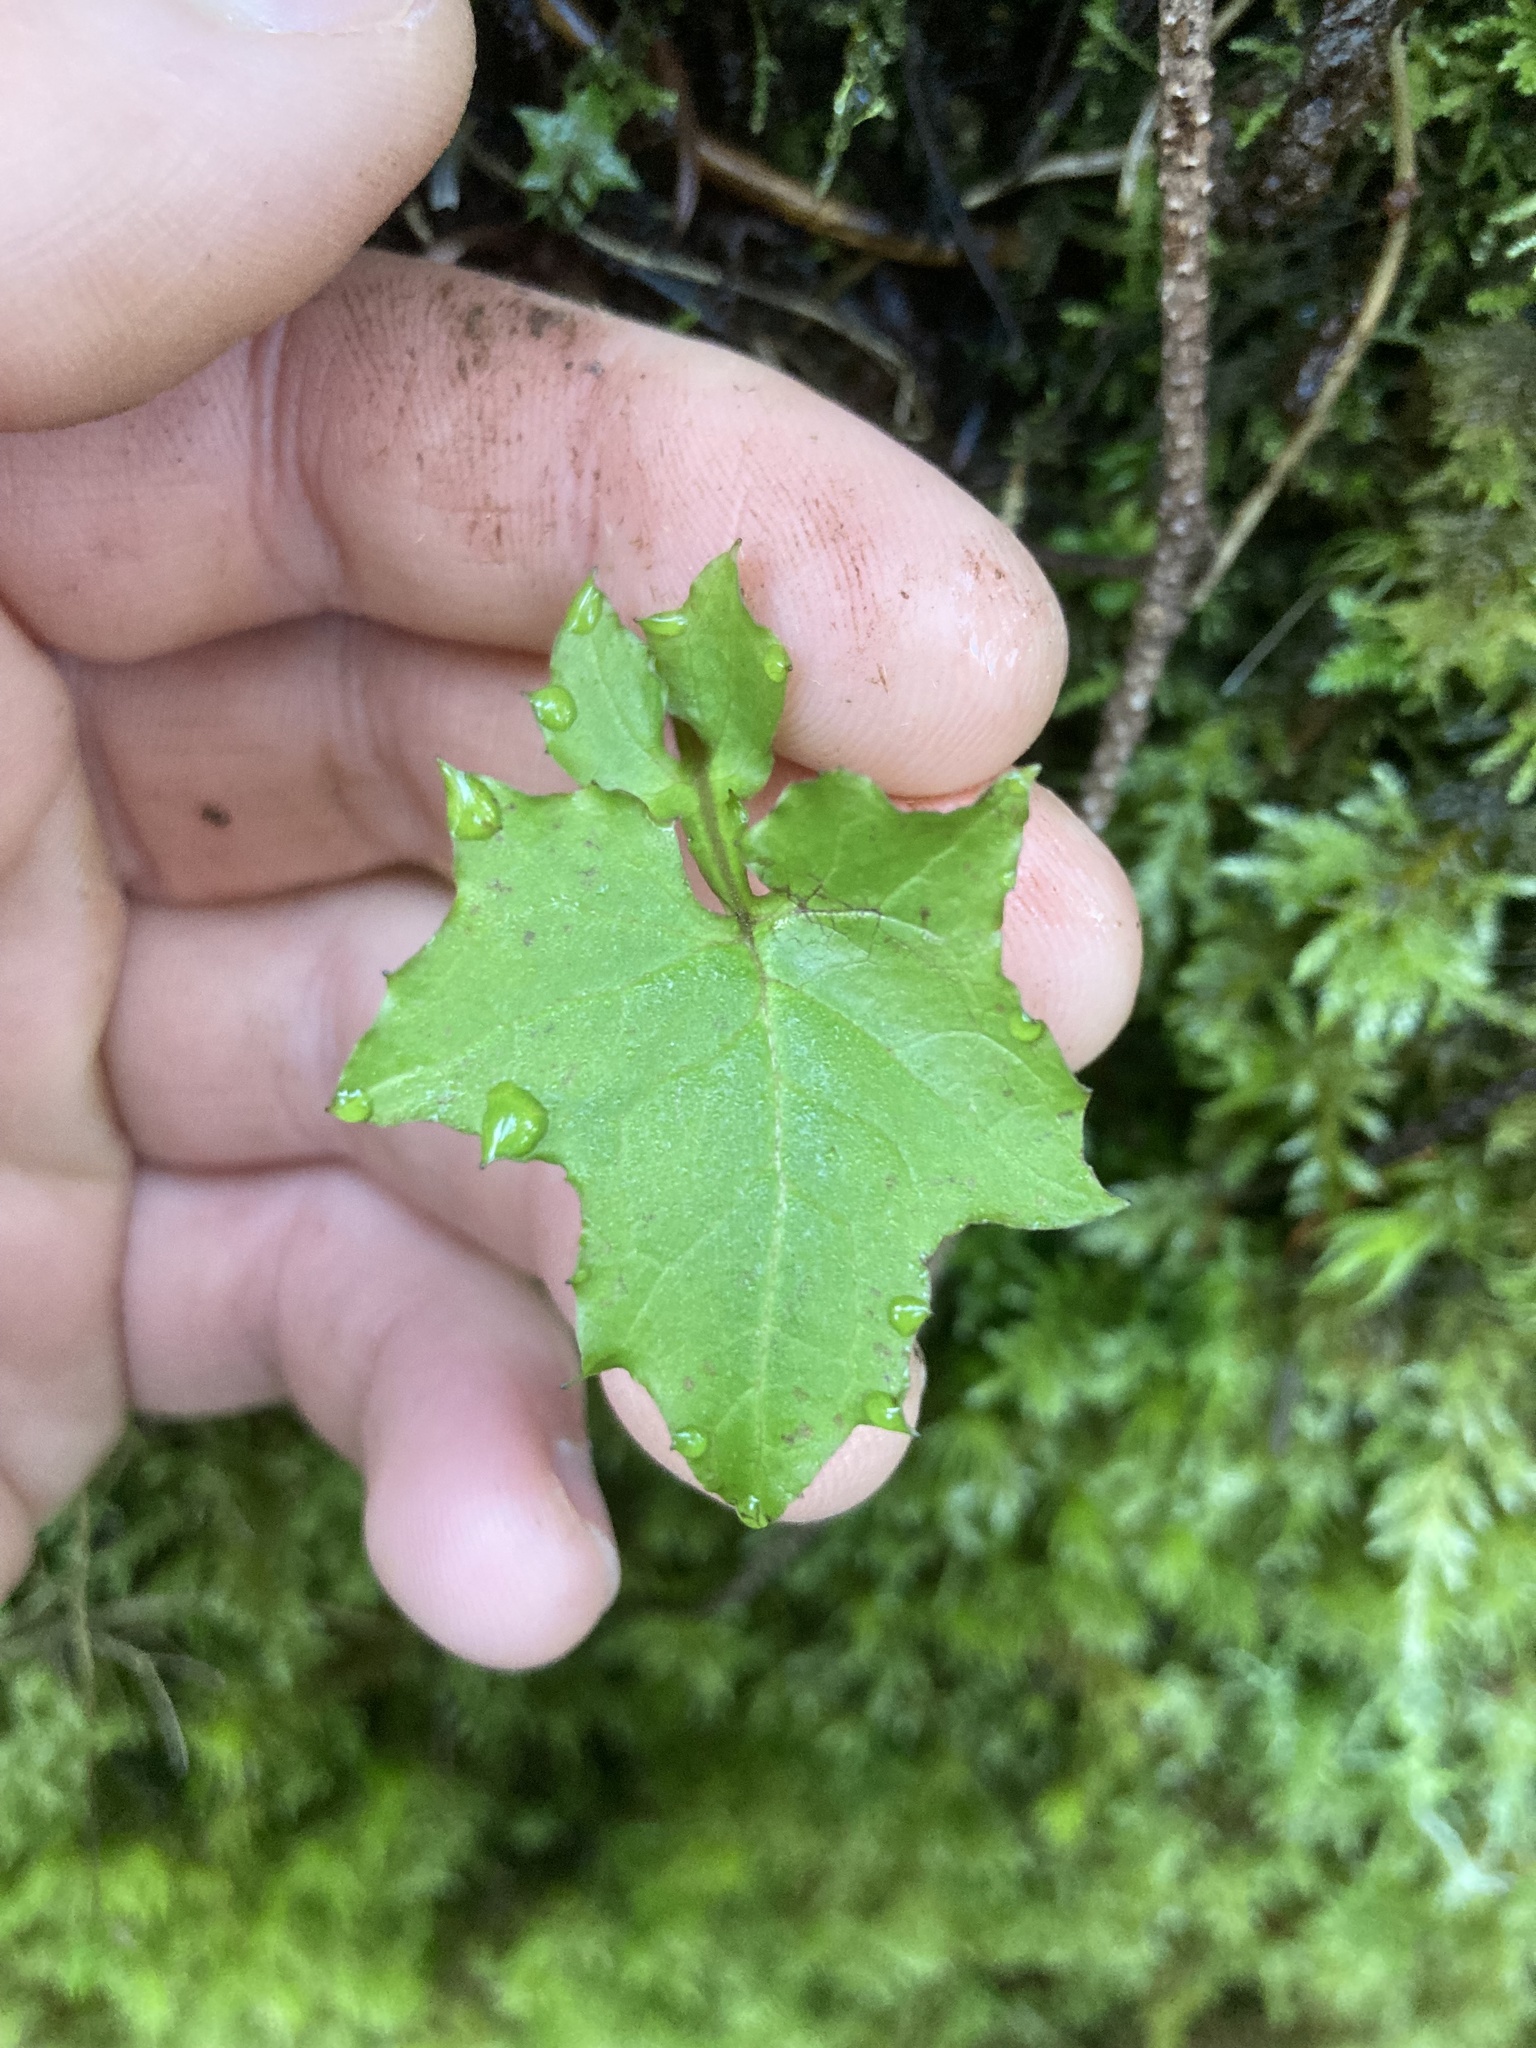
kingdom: Plantae
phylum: Tracheophyta
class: Magnoliopsida
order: Asterales
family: Asteraceae
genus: Mycelis
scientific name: Mycelis muralis
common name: Wall lettuce
